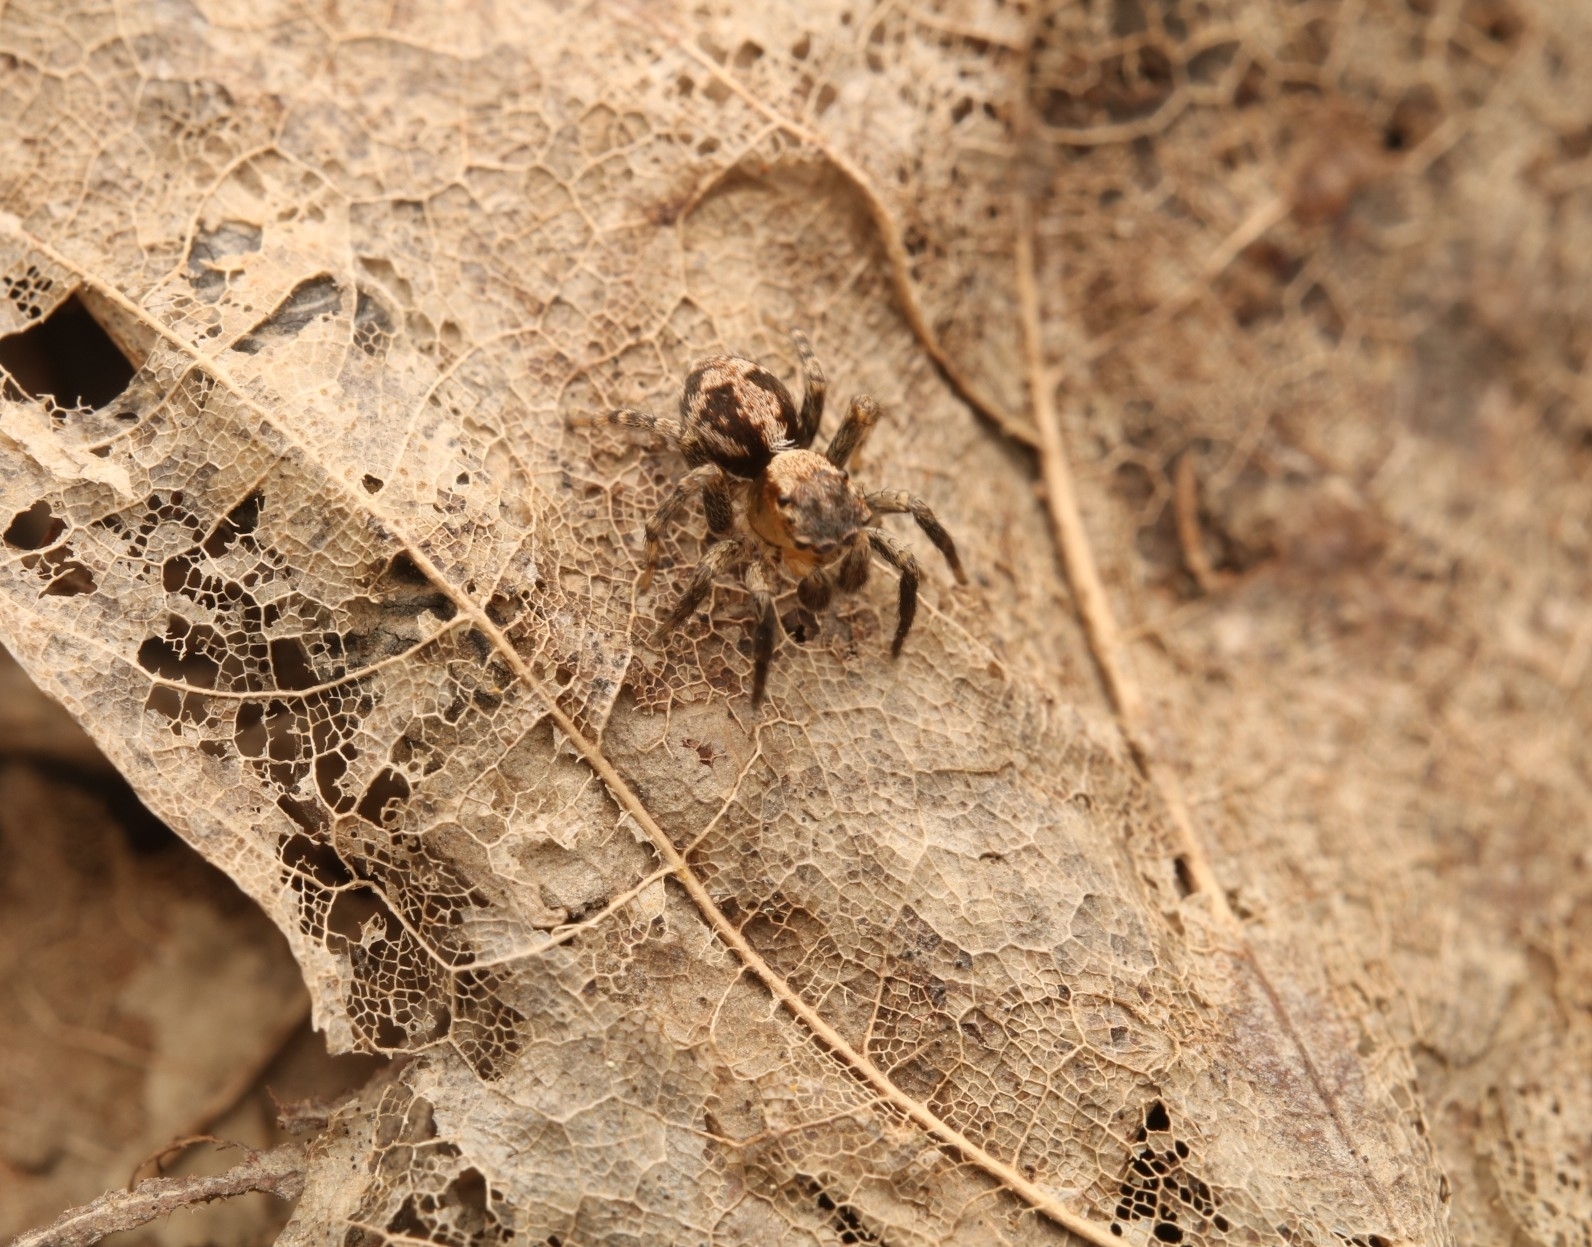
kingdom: Animalia
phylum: Arthropoda
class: Arachnida
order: Araneae
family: Salticidae
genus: Naphrys
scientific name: Naphrys pulex
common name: Flea jumping spider
